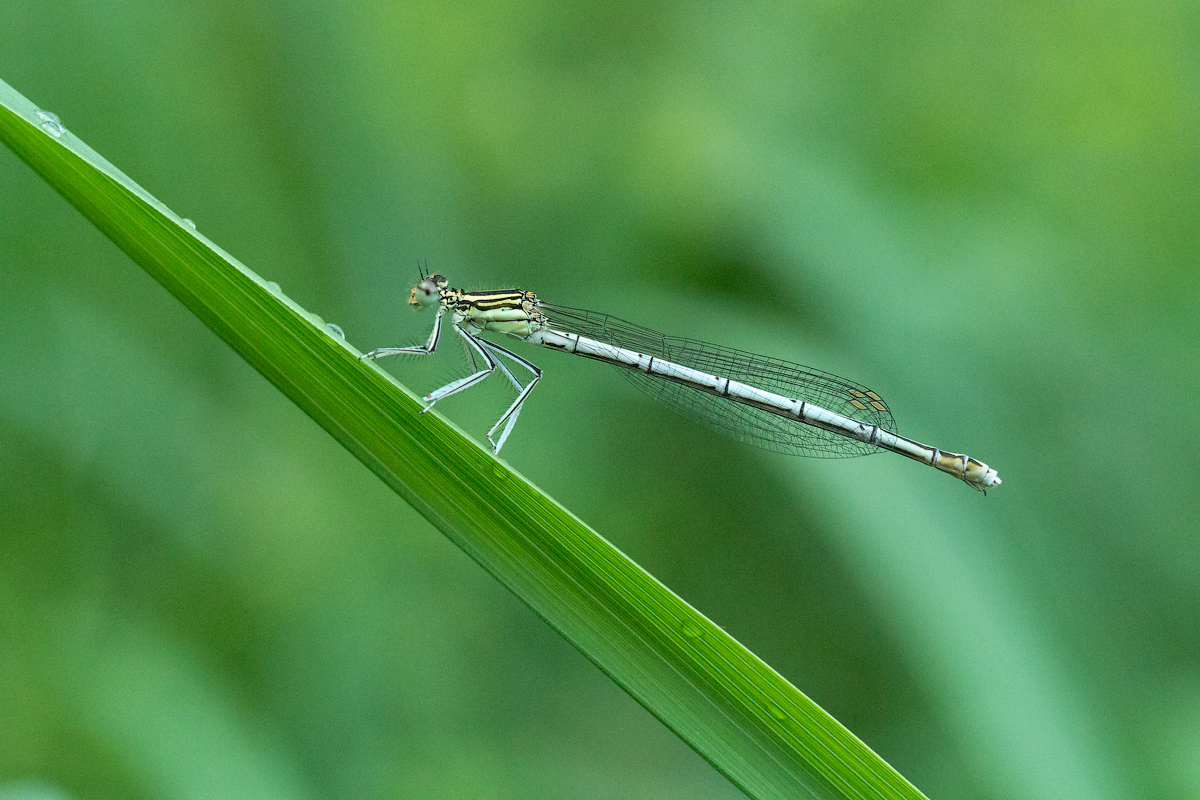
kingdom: Animalia
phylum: Arthropoda
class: Insecta
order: Odonata
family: Platycnemididae
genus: Platycnemis
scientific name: Platycnemis pennipes
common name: White-legged damselfly
